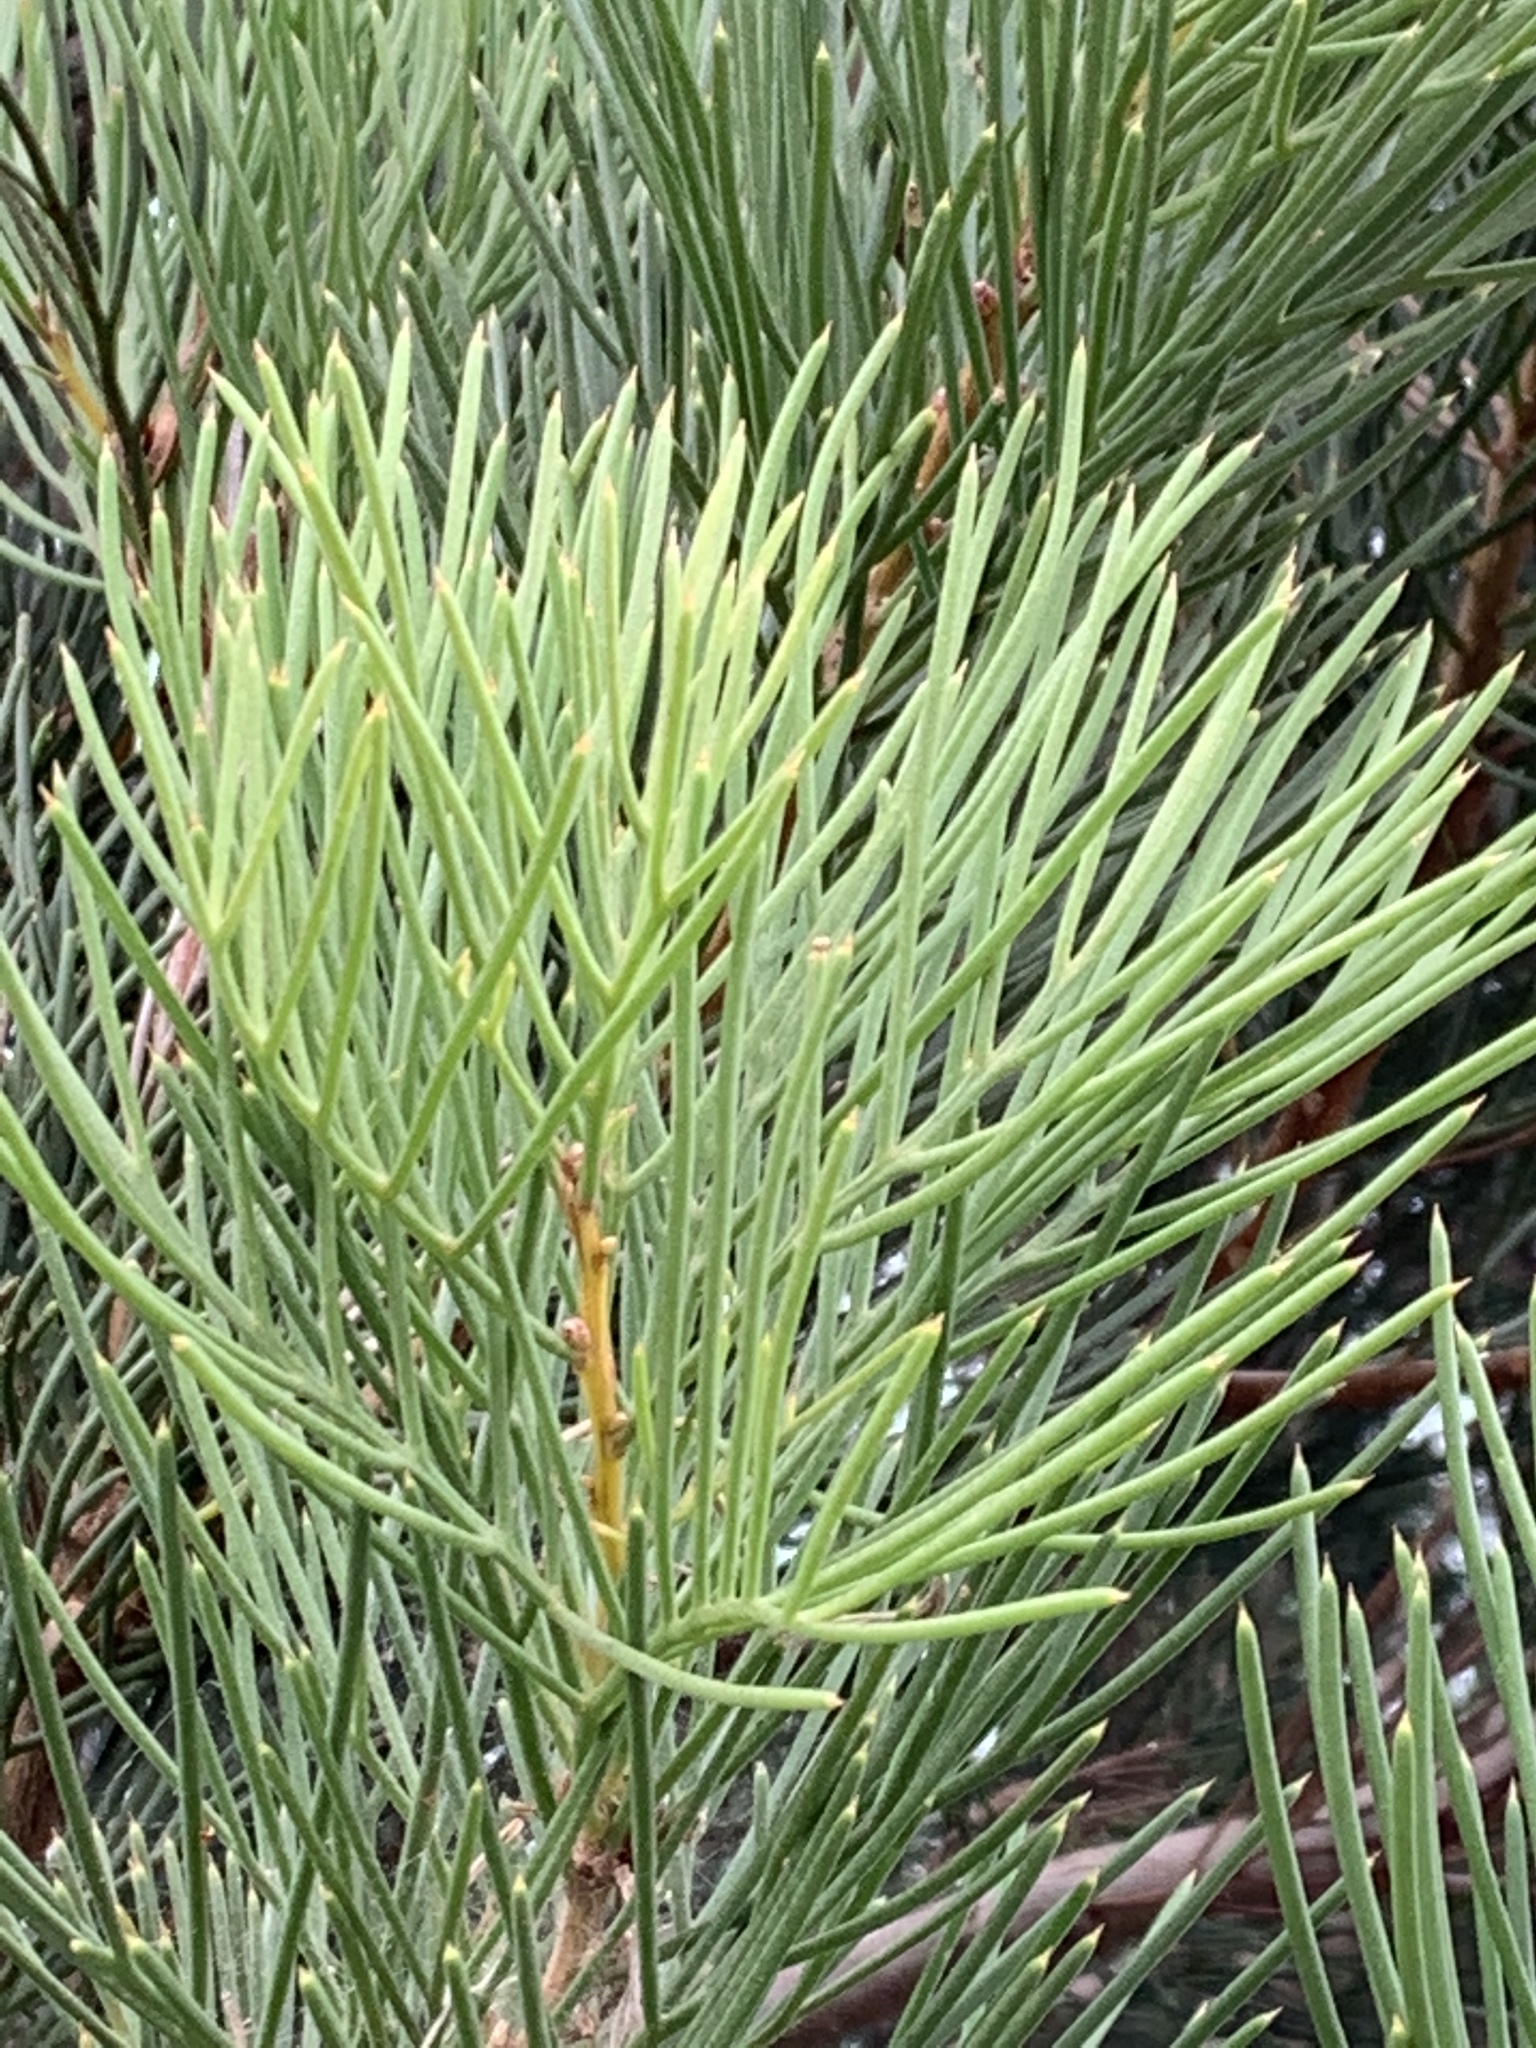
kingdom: Plantae
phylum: Tracheophyta
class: Magnoliopsida
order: Proteales
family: Proteaceae
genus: Hakea
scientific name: Hakea drupacea
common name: Sweet hakea
